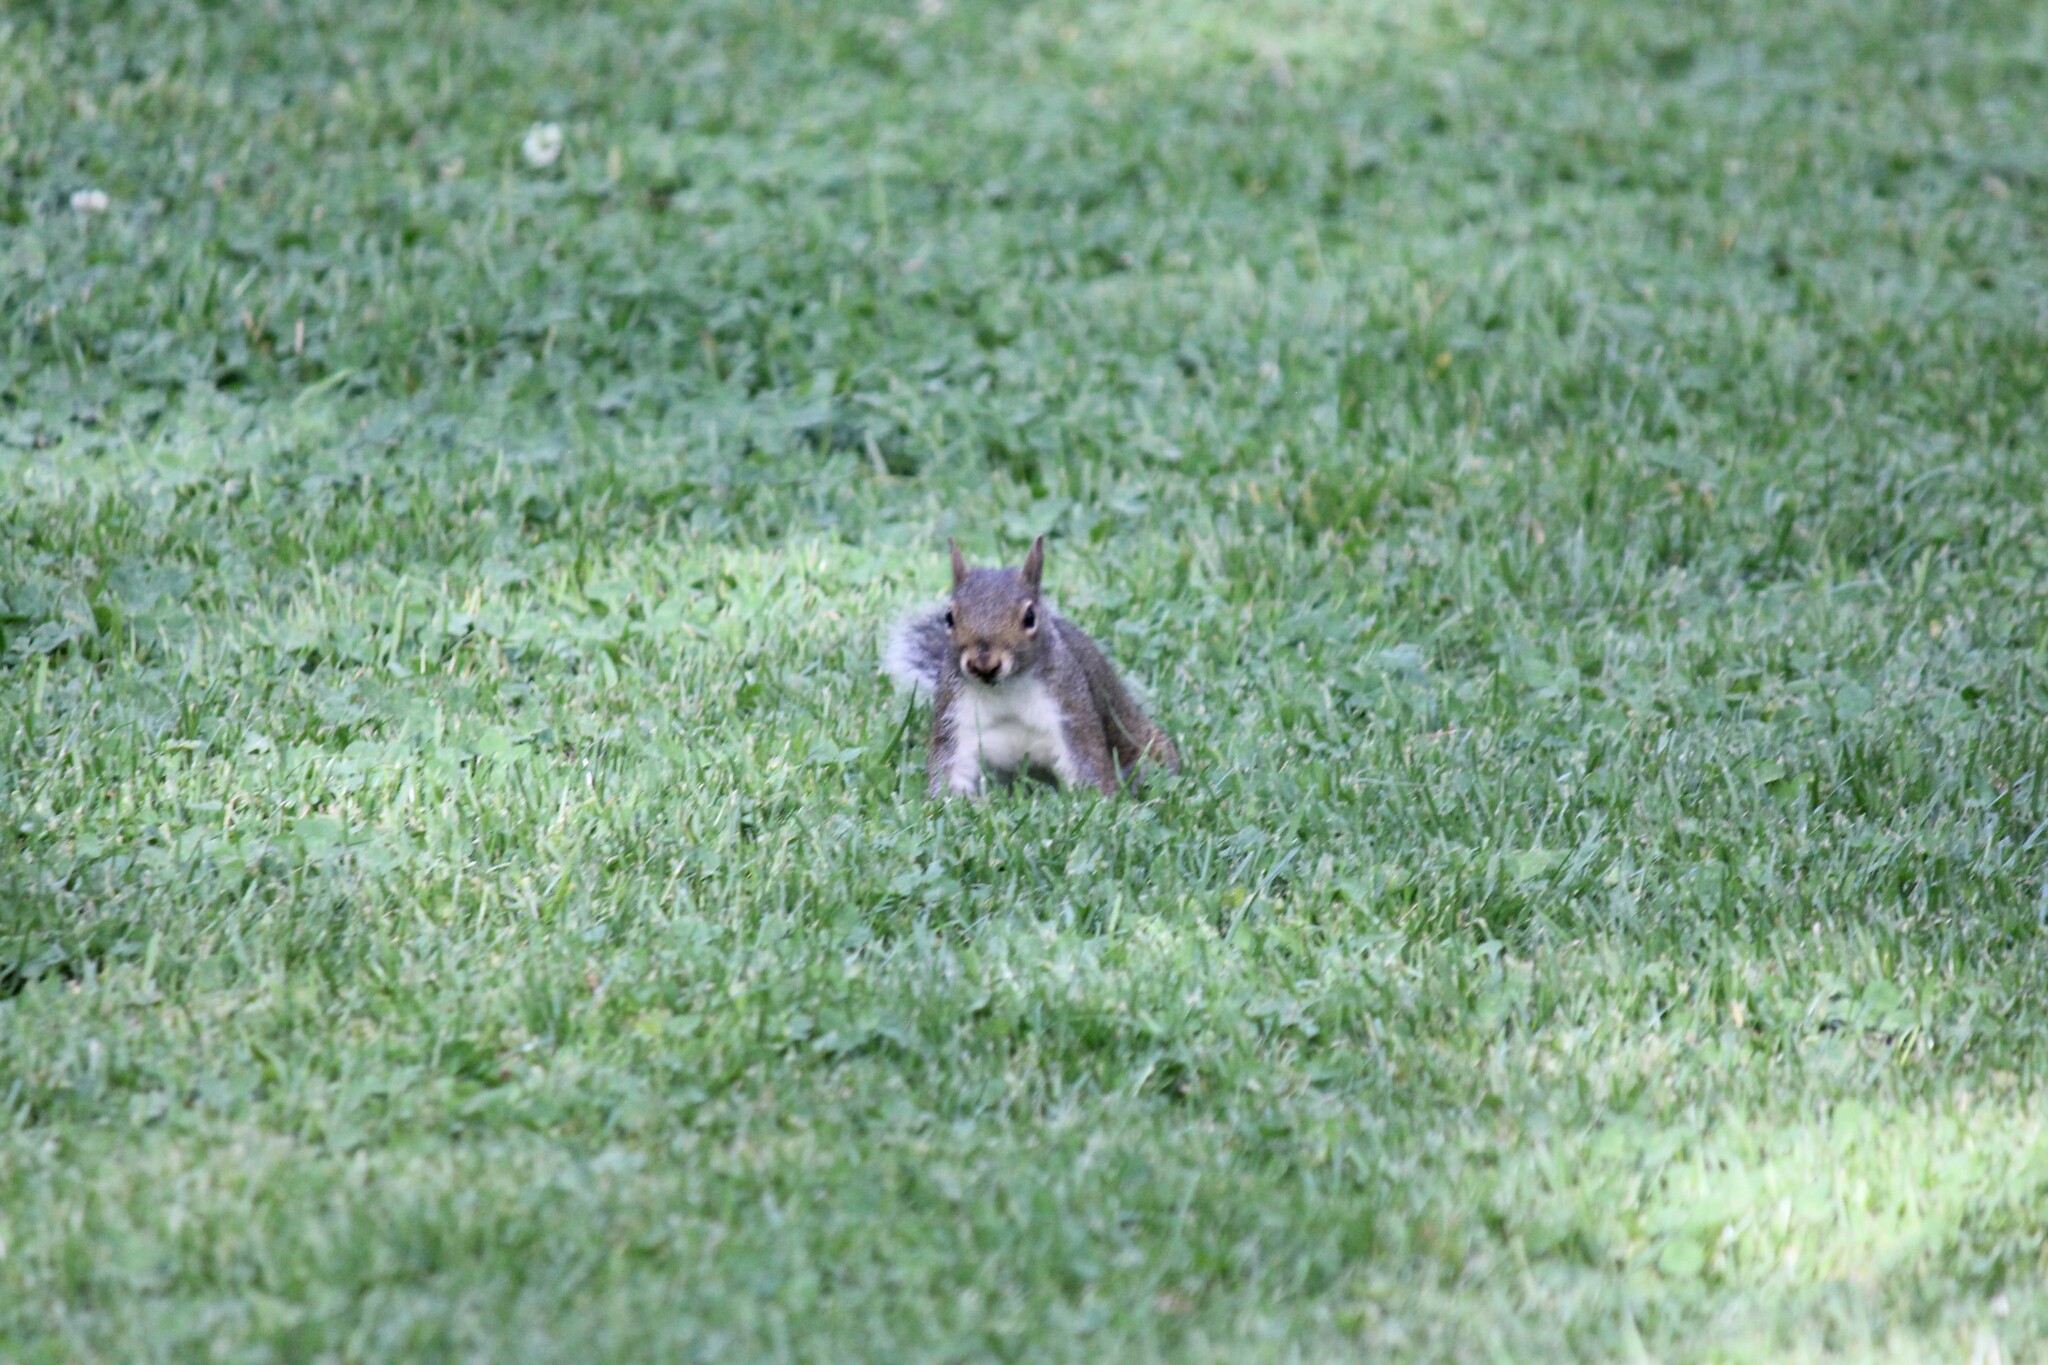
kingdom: Animalia
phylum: Chordata
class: Mammalia
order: Rodentia
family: Sciuridae
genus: Sciurus
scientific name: Sciurus carolinensis
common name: Eastern gray squirrel
